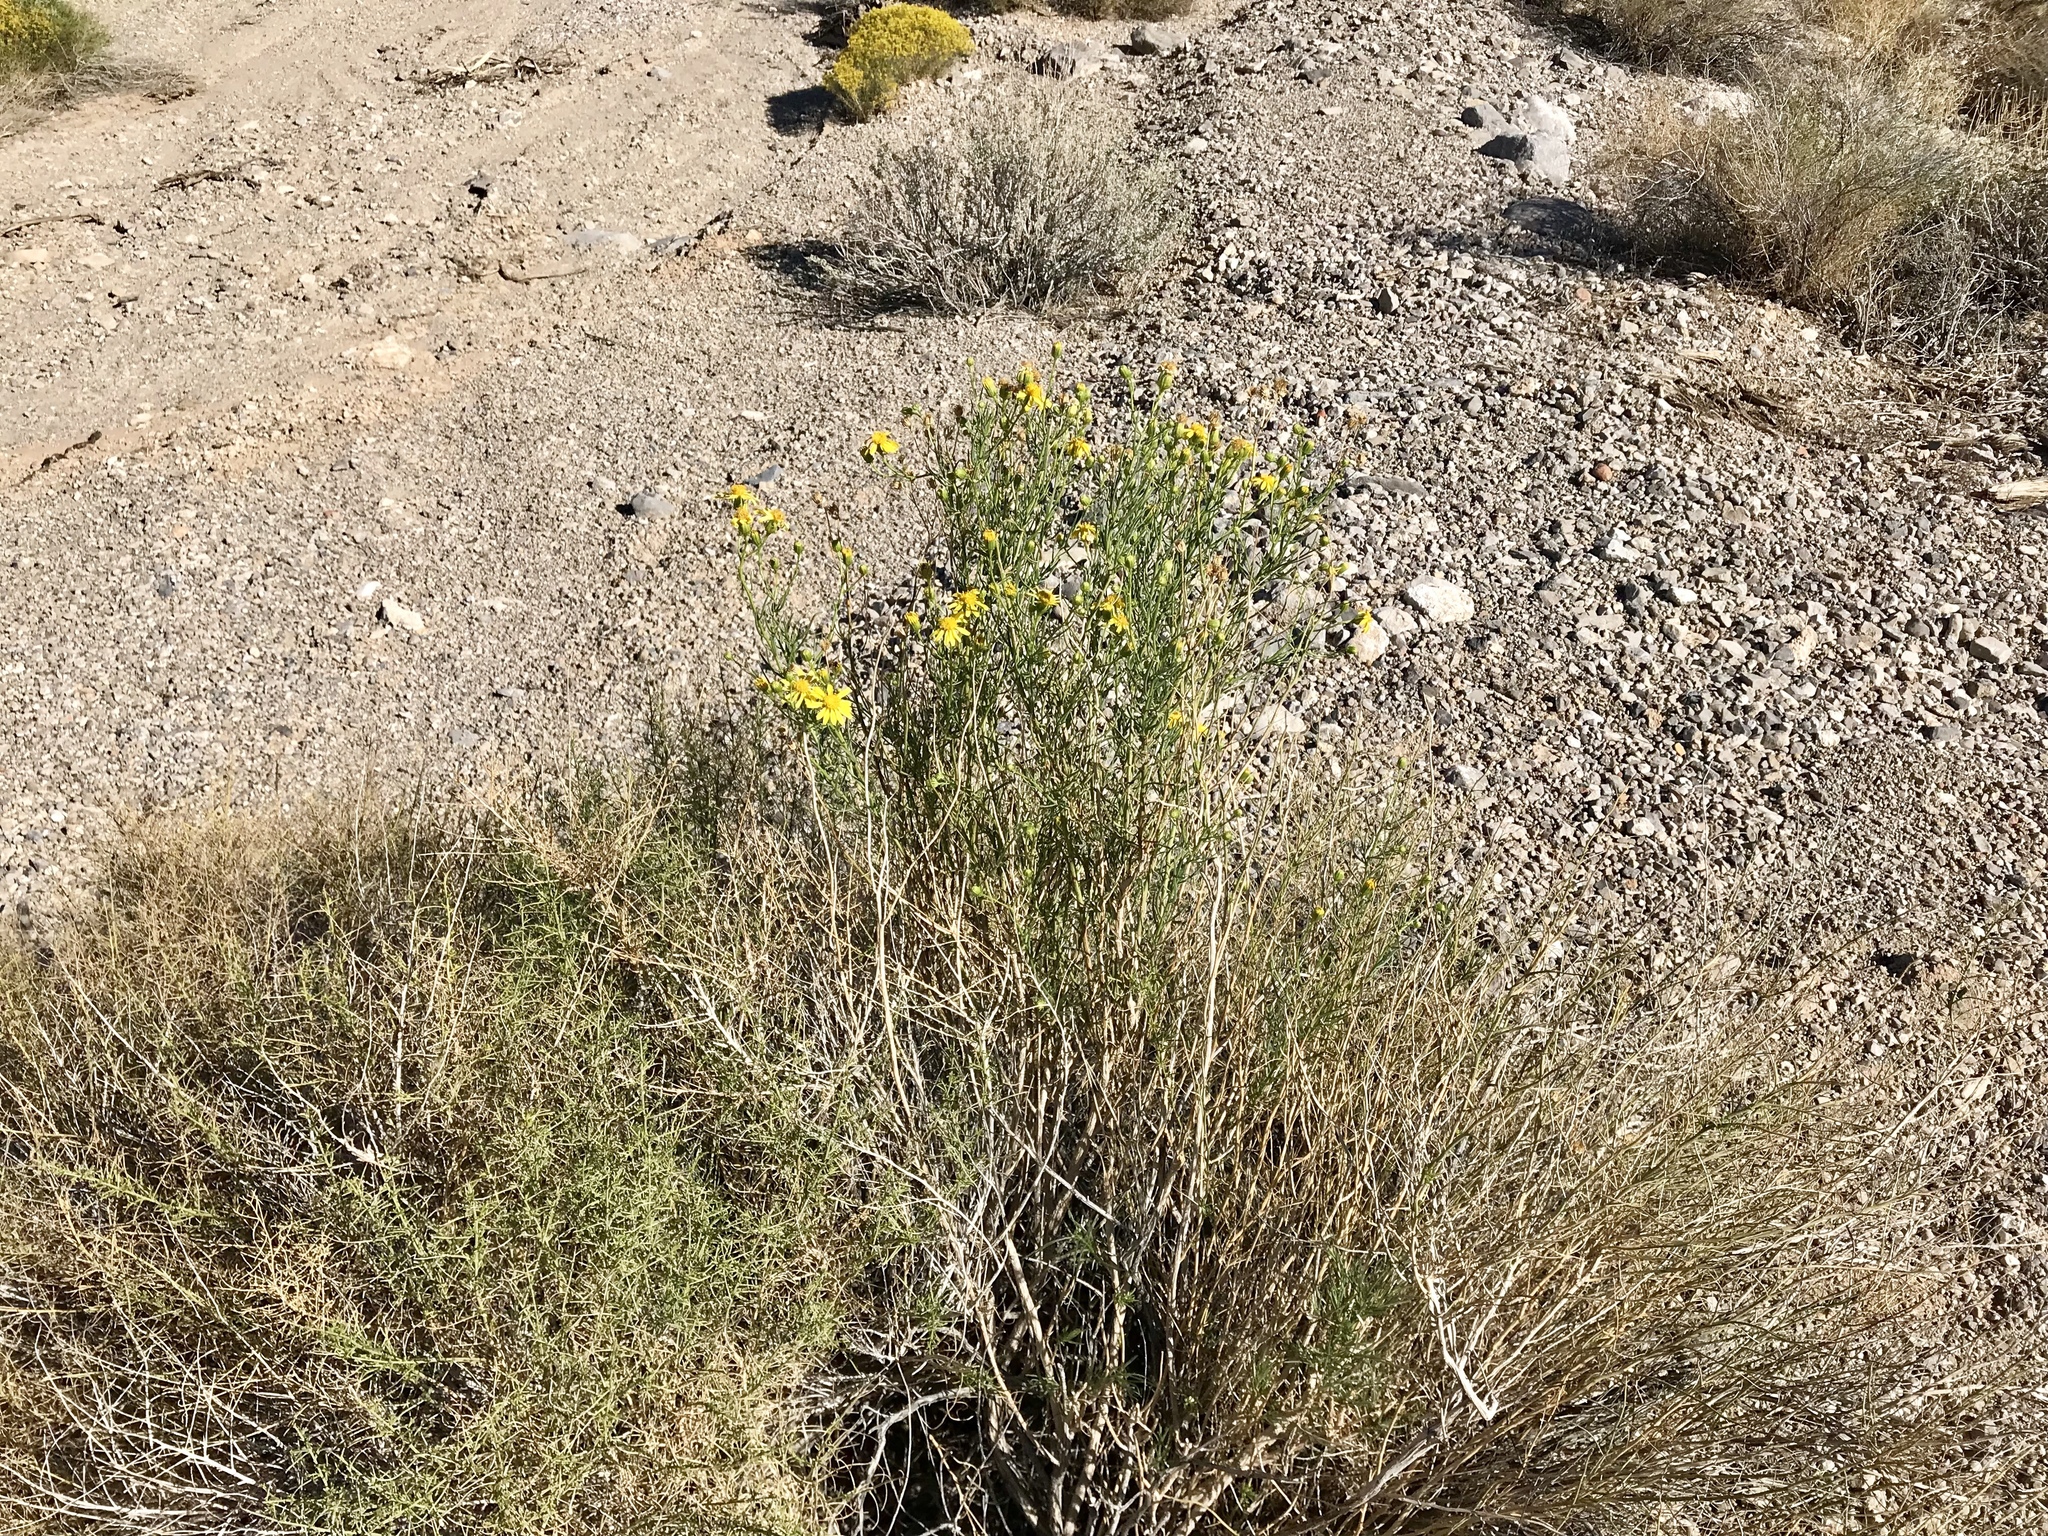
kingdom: Plantae
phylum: Tracheophyta
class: Magnoliopsida
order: Asterales
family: Asteraceae
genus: Ericameria
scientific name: Ericameria linearifolia
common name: Interior goldenbush
